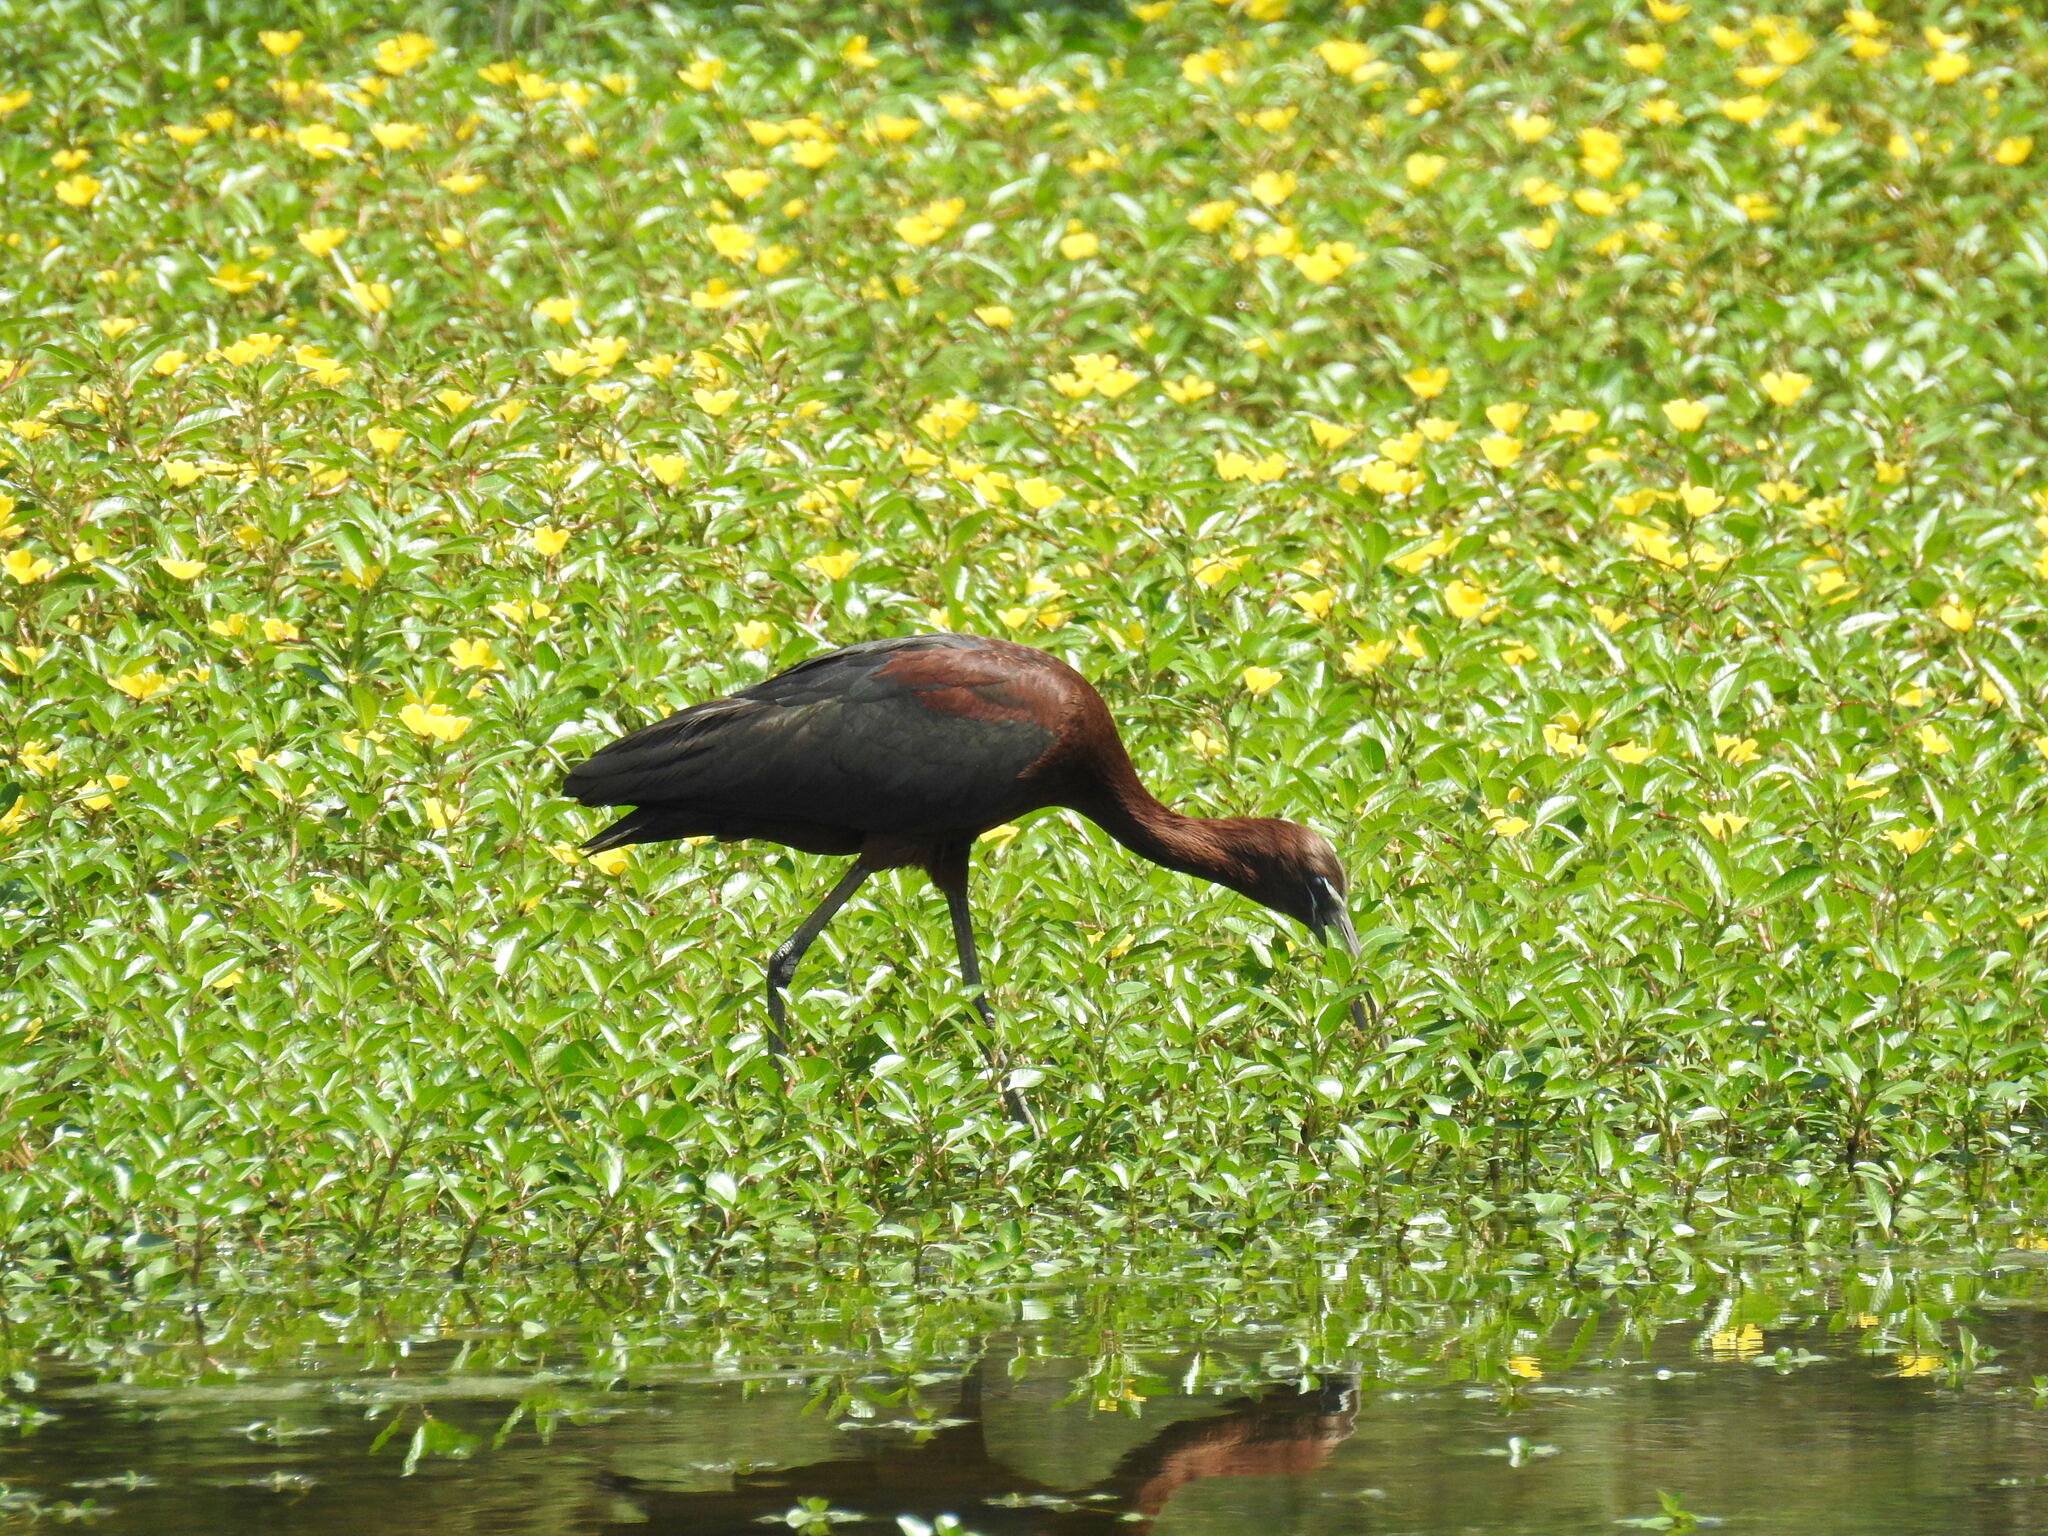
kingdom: Animalia
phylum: Chordata
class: Aves
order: Pelecaniformes
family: Threskiornithidae
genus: Plegadis
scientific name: Plegadis falcinellus
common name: Glossy ibis
